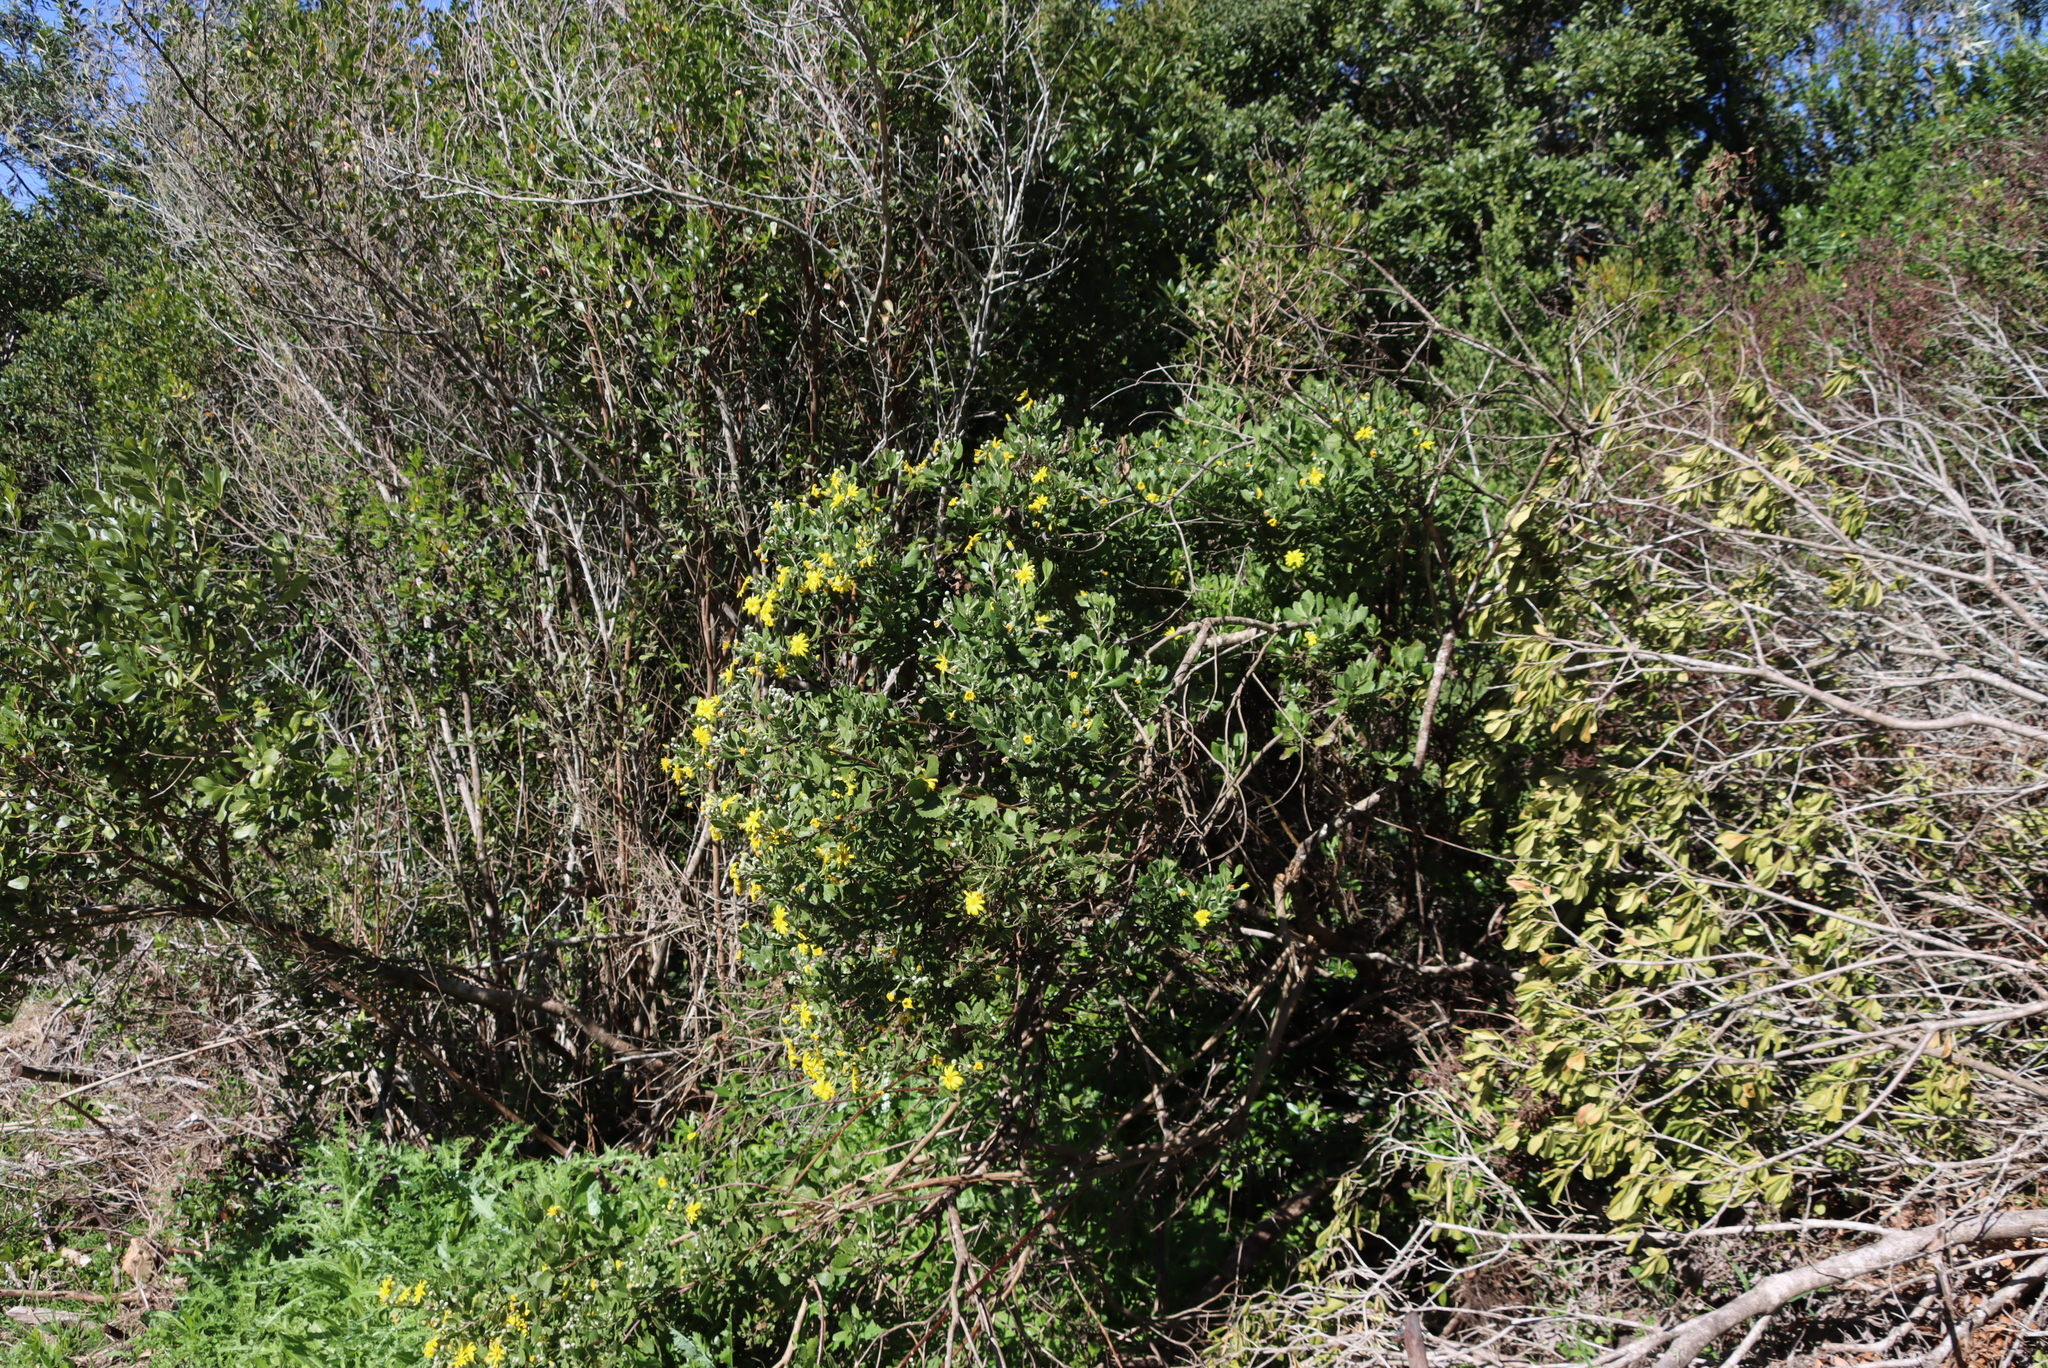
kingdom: Plantae
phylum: Tracheophyta
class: Magnoliopsida
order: Asterales
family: Asteraceae
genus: Osteospermum
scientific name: Osteospermum moniliferum
